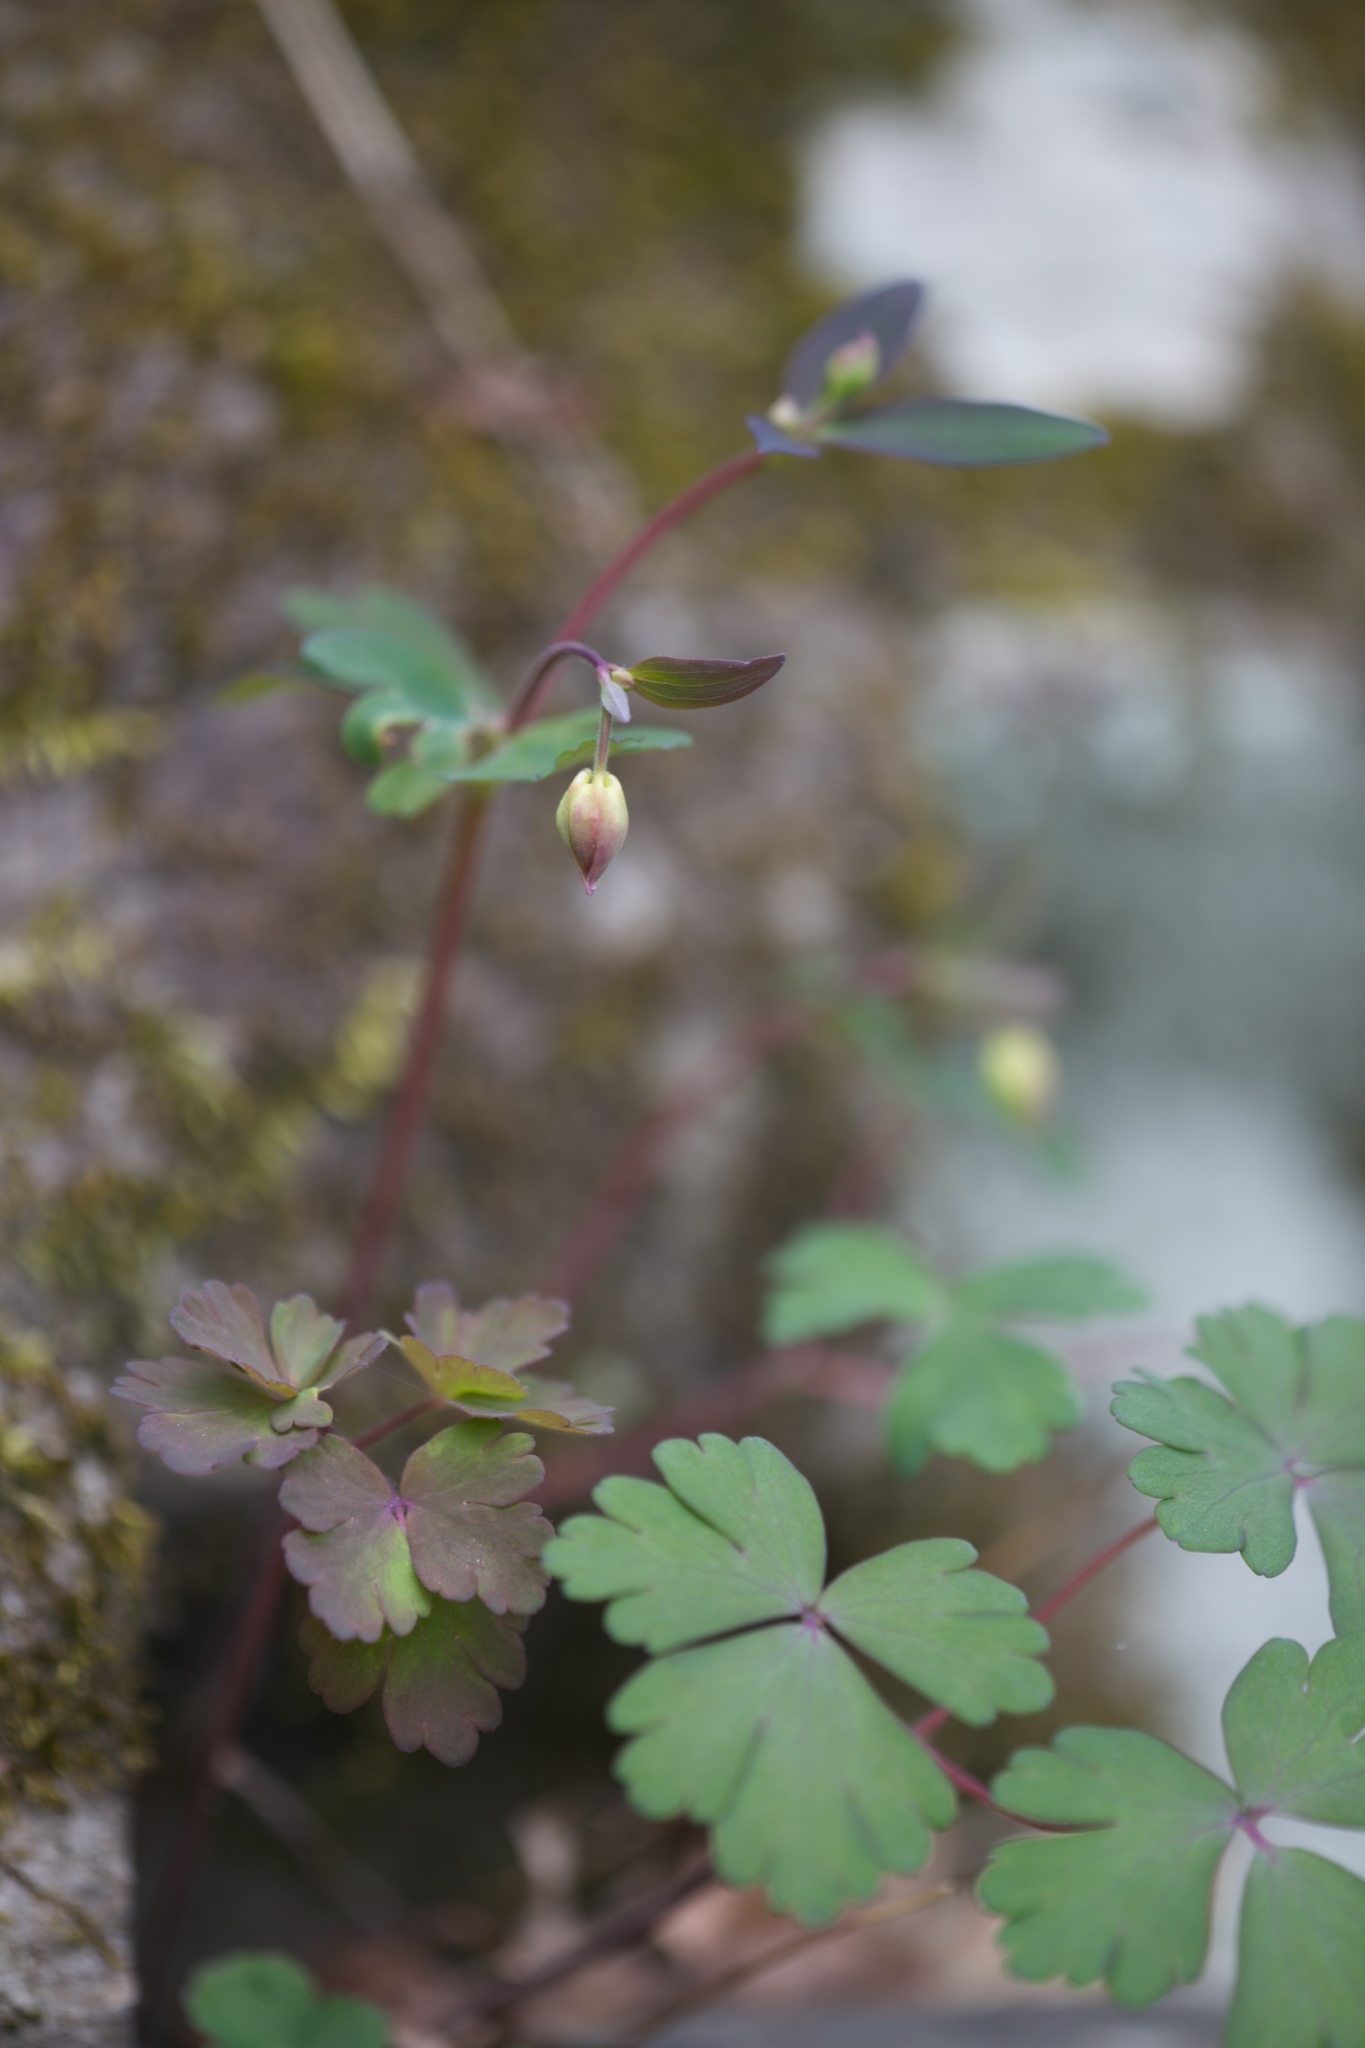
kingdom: Plantae
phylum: Tracheophyta
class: Magnoliopsida
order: Ranunculales
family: Ranunculaceae
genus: Aquilegia
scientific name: Aquilegia canadensis
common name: American columbine
